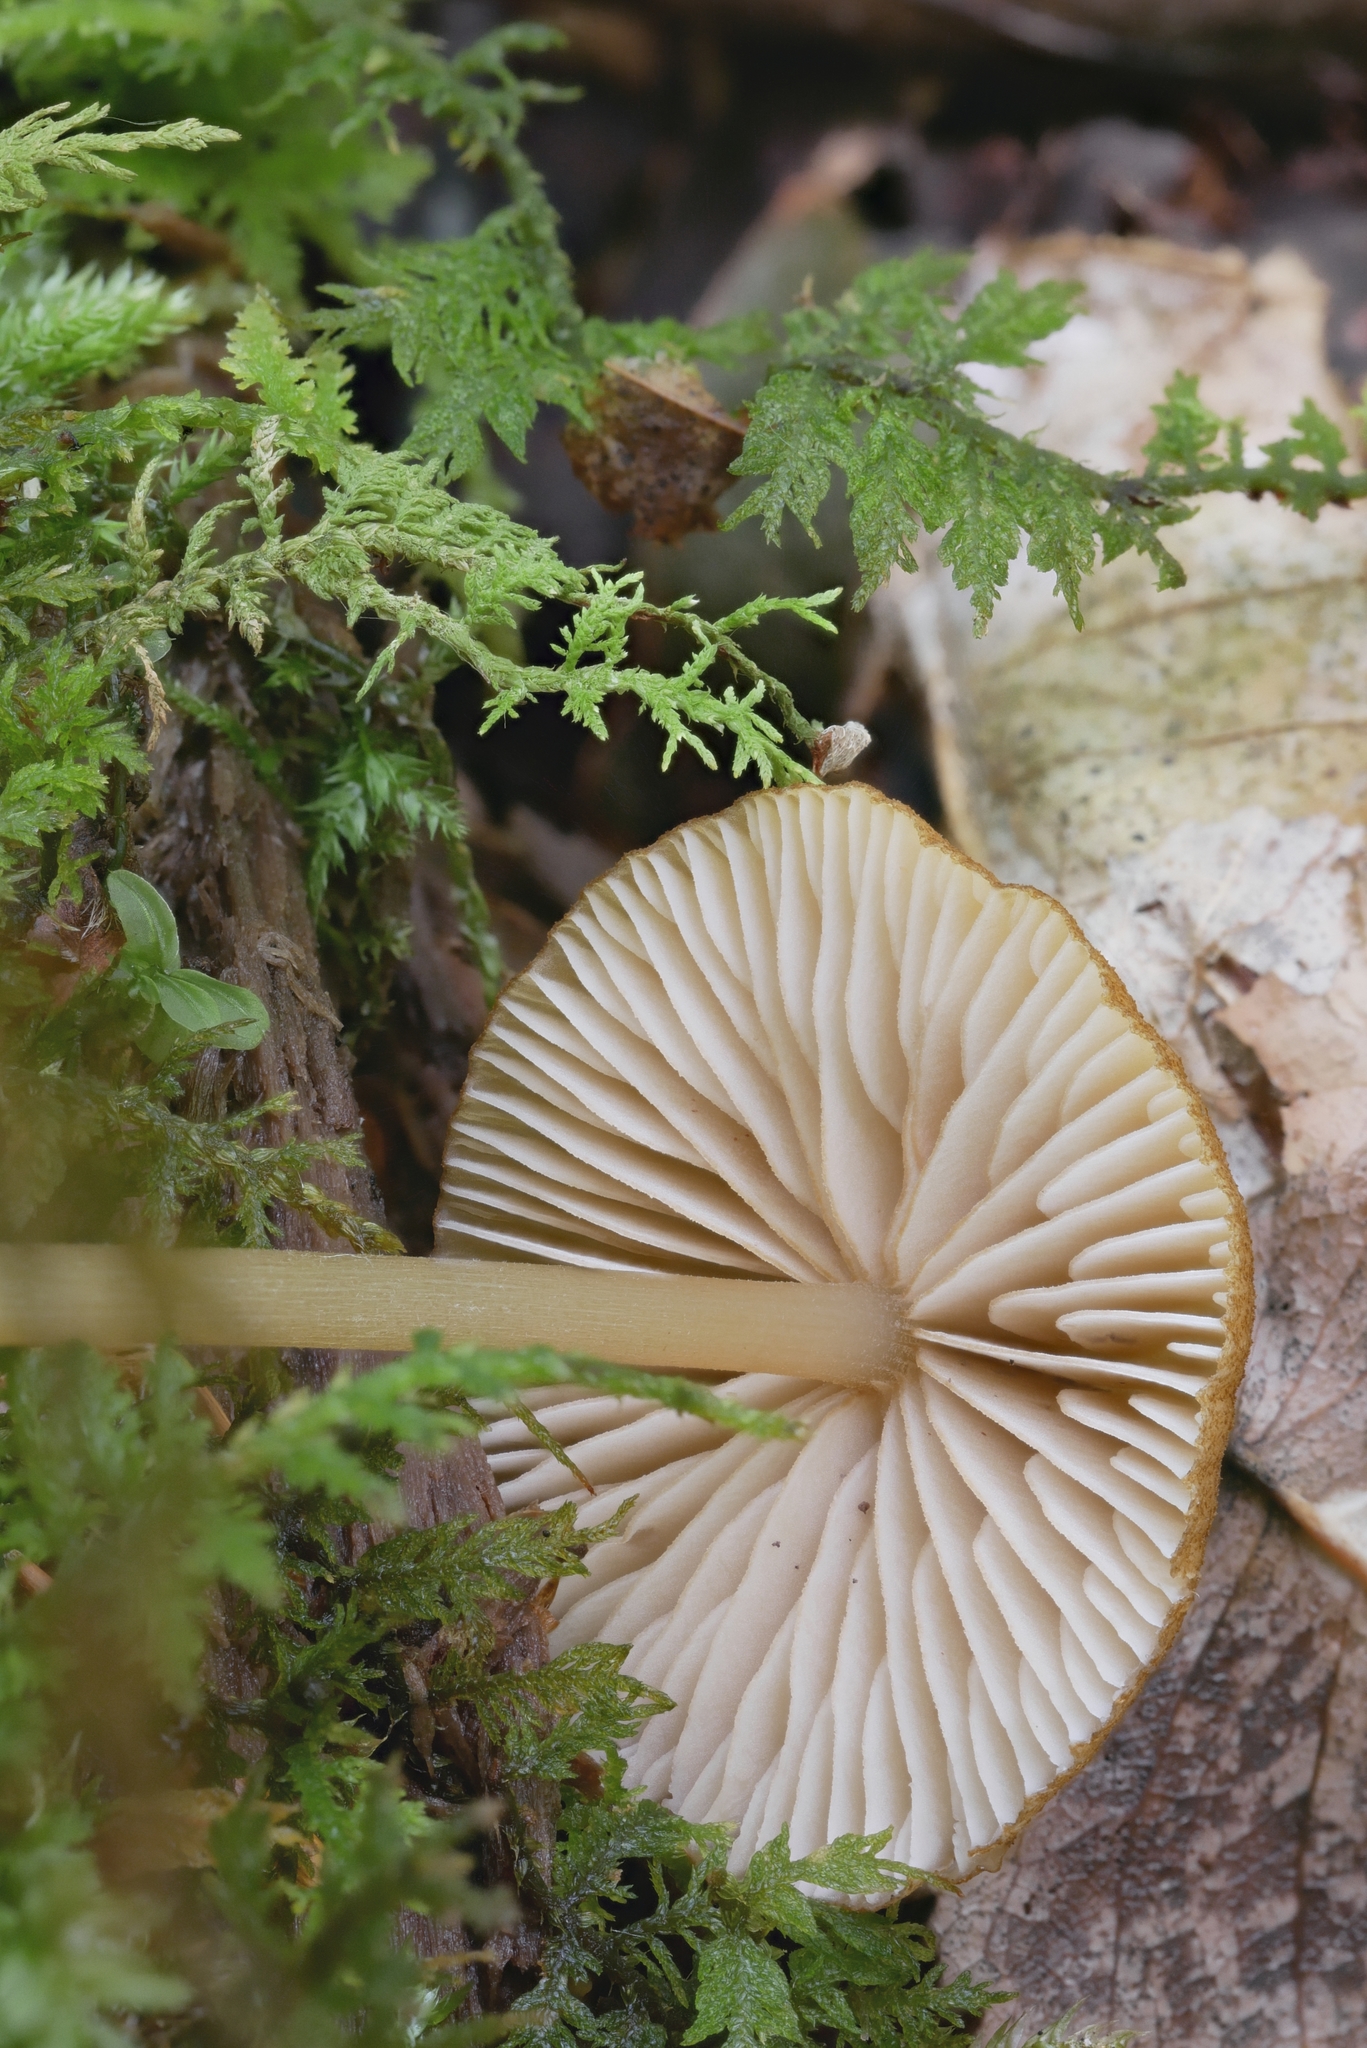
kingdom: Fungi
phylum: Basidiomycota
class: Agaricomycetes
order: Agaricales
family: Entolomataceae
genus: Entoloma
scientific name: Entoloma formosum
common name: Pretty pinkgill
